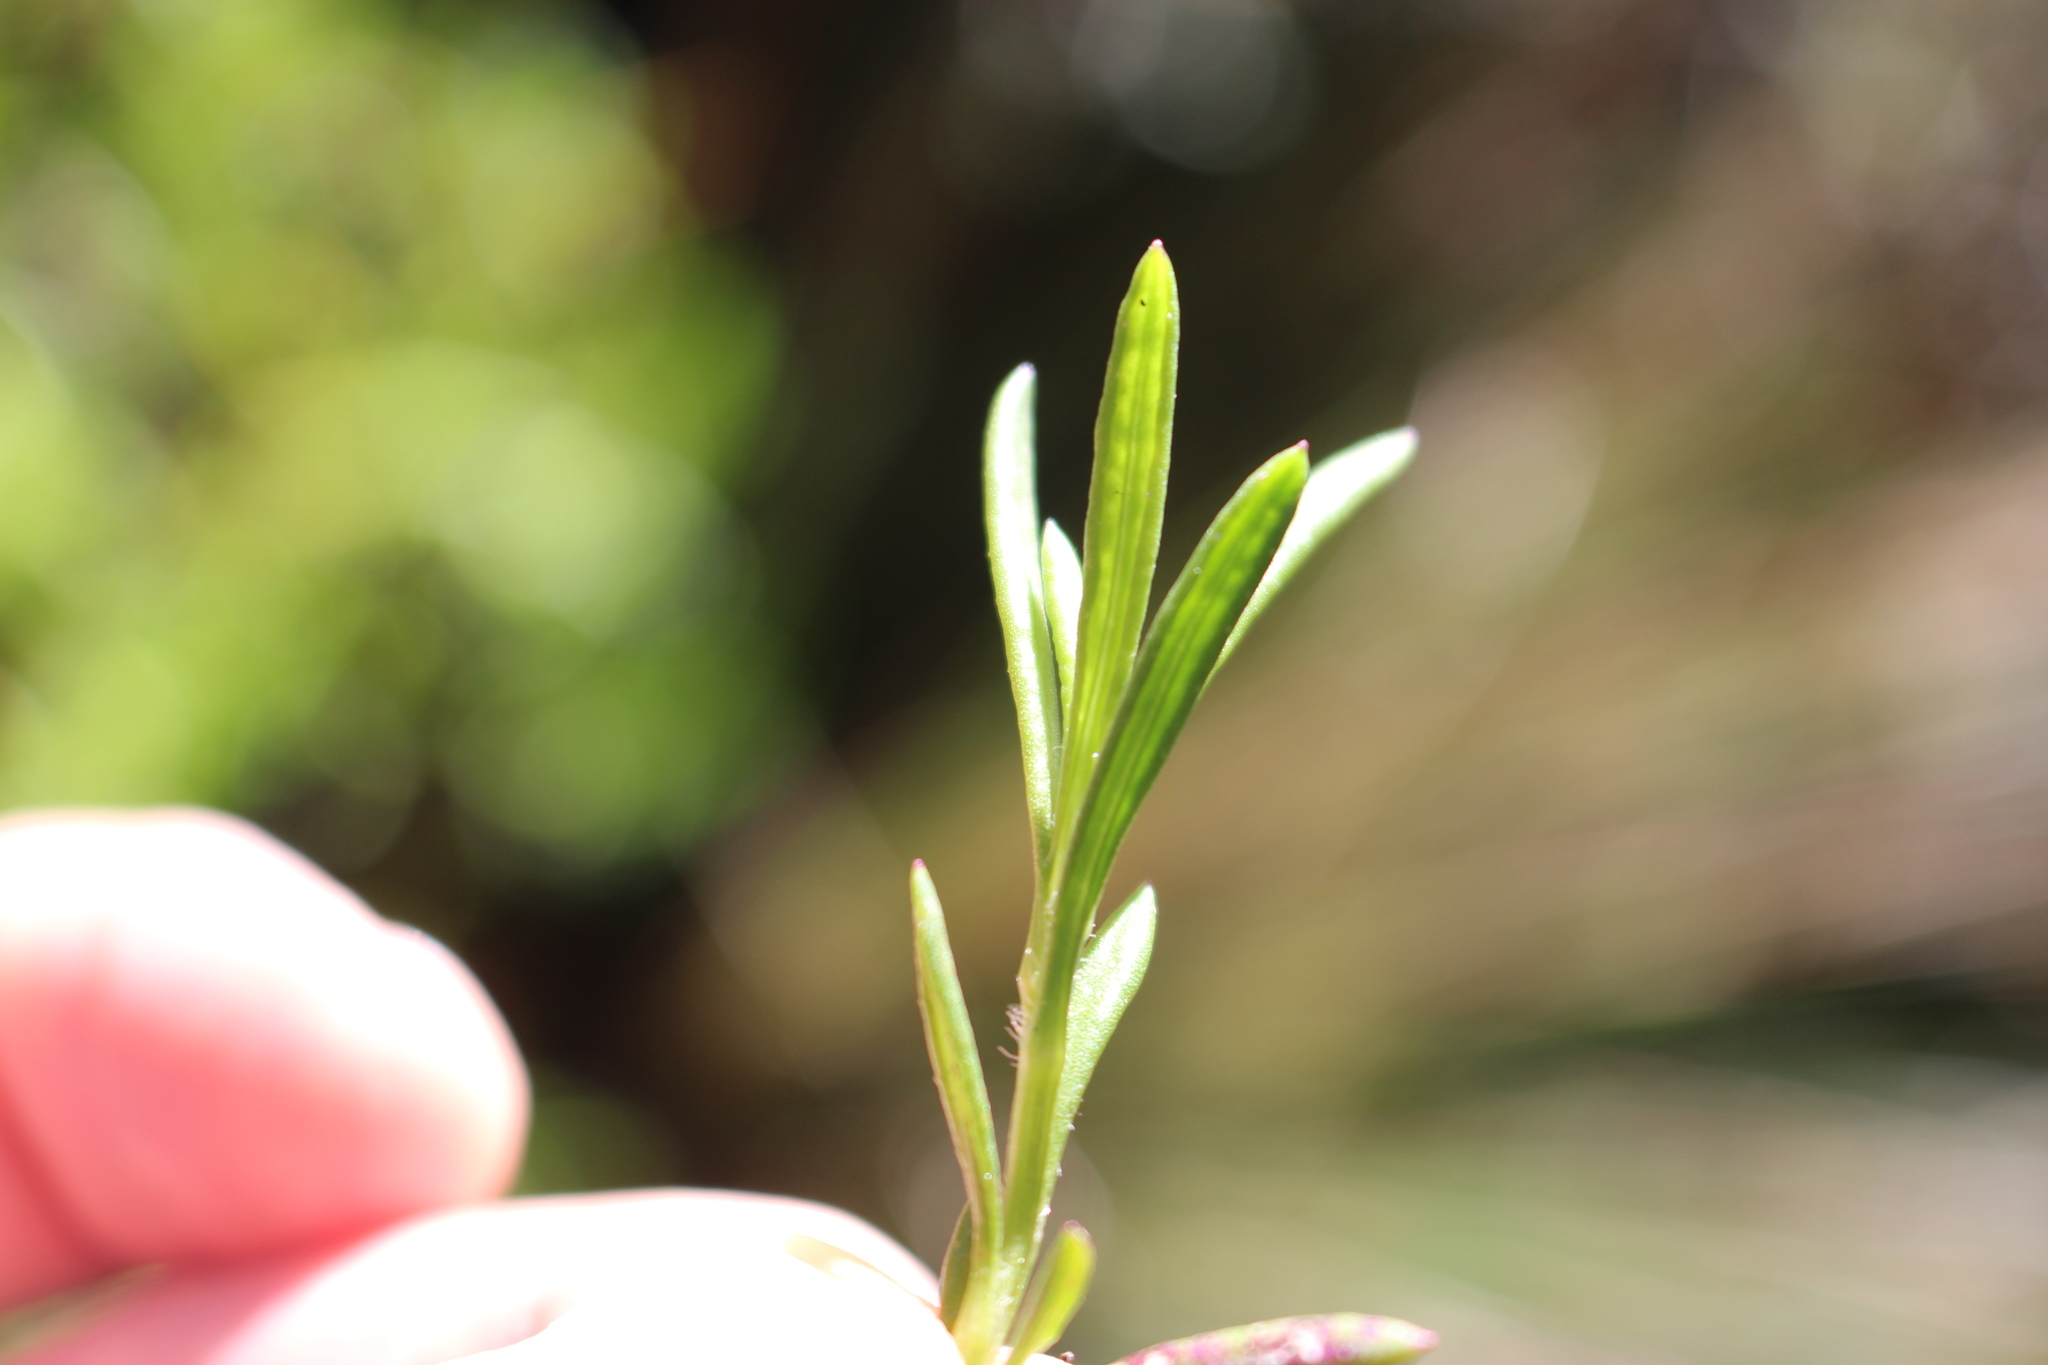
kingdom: Plantae
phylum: Tracheophyta
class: Magnoliopsida
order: Asterales
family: Asteraceae
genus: Senecio
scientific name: Senecio skirrhodon
